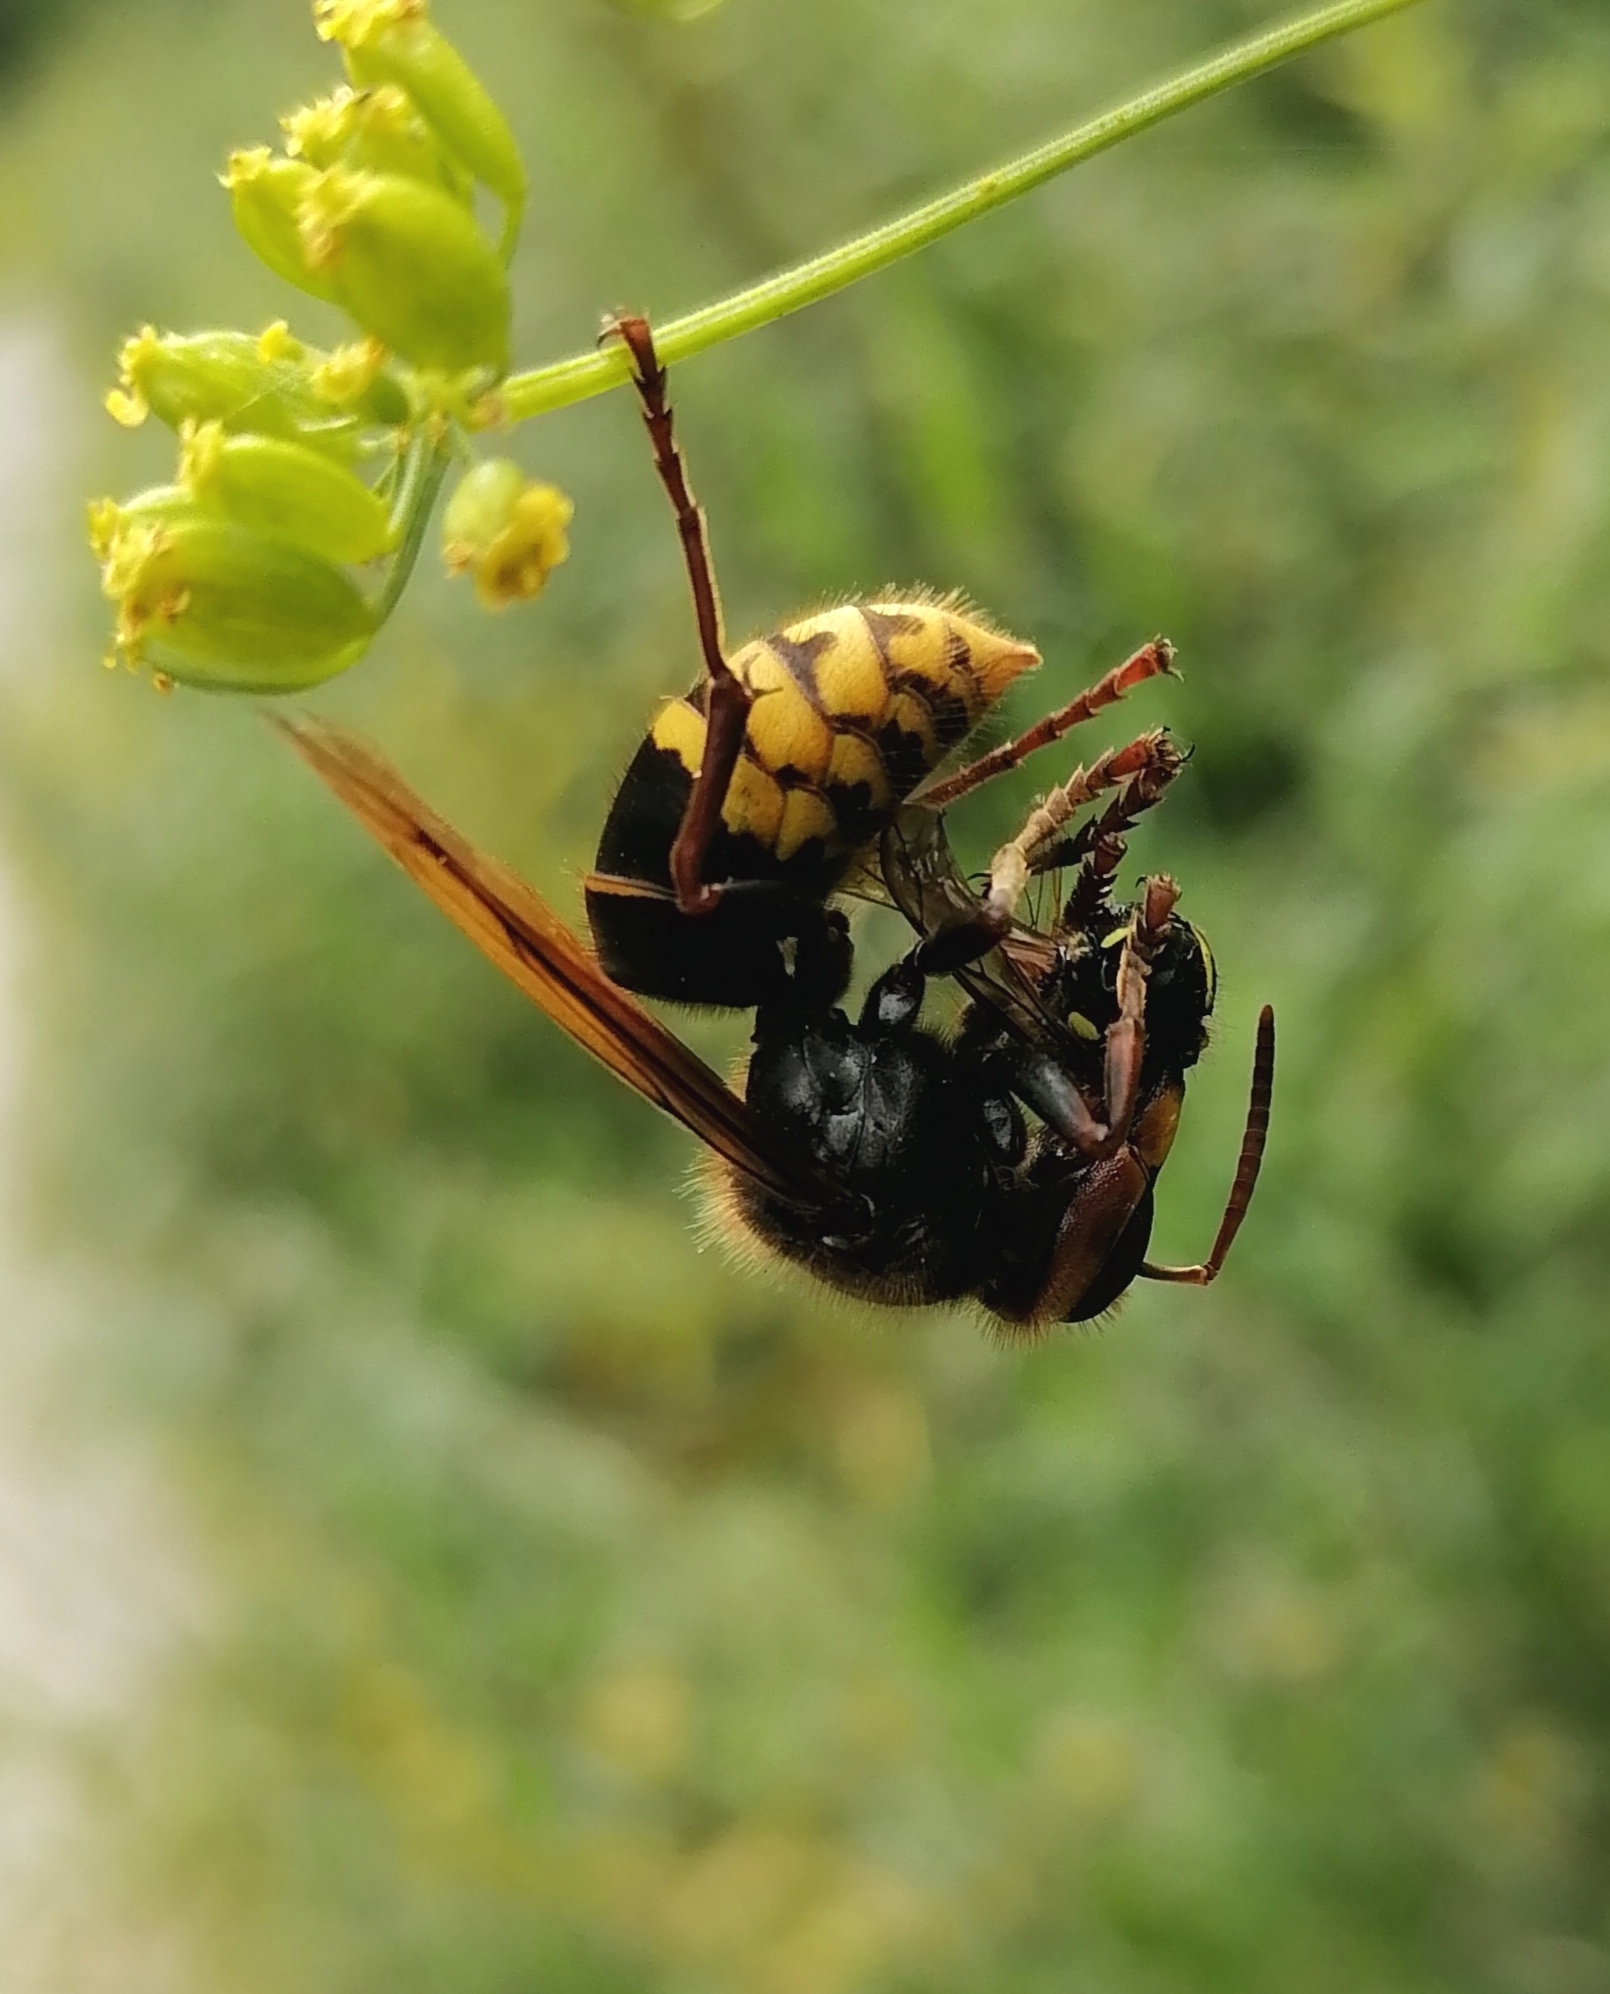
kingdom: Animalia
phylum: Arthropoda
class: Insecta
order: Hymenoptera
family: Vespidae
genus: Vespa
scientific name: Vespa crabro
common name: Hornet
